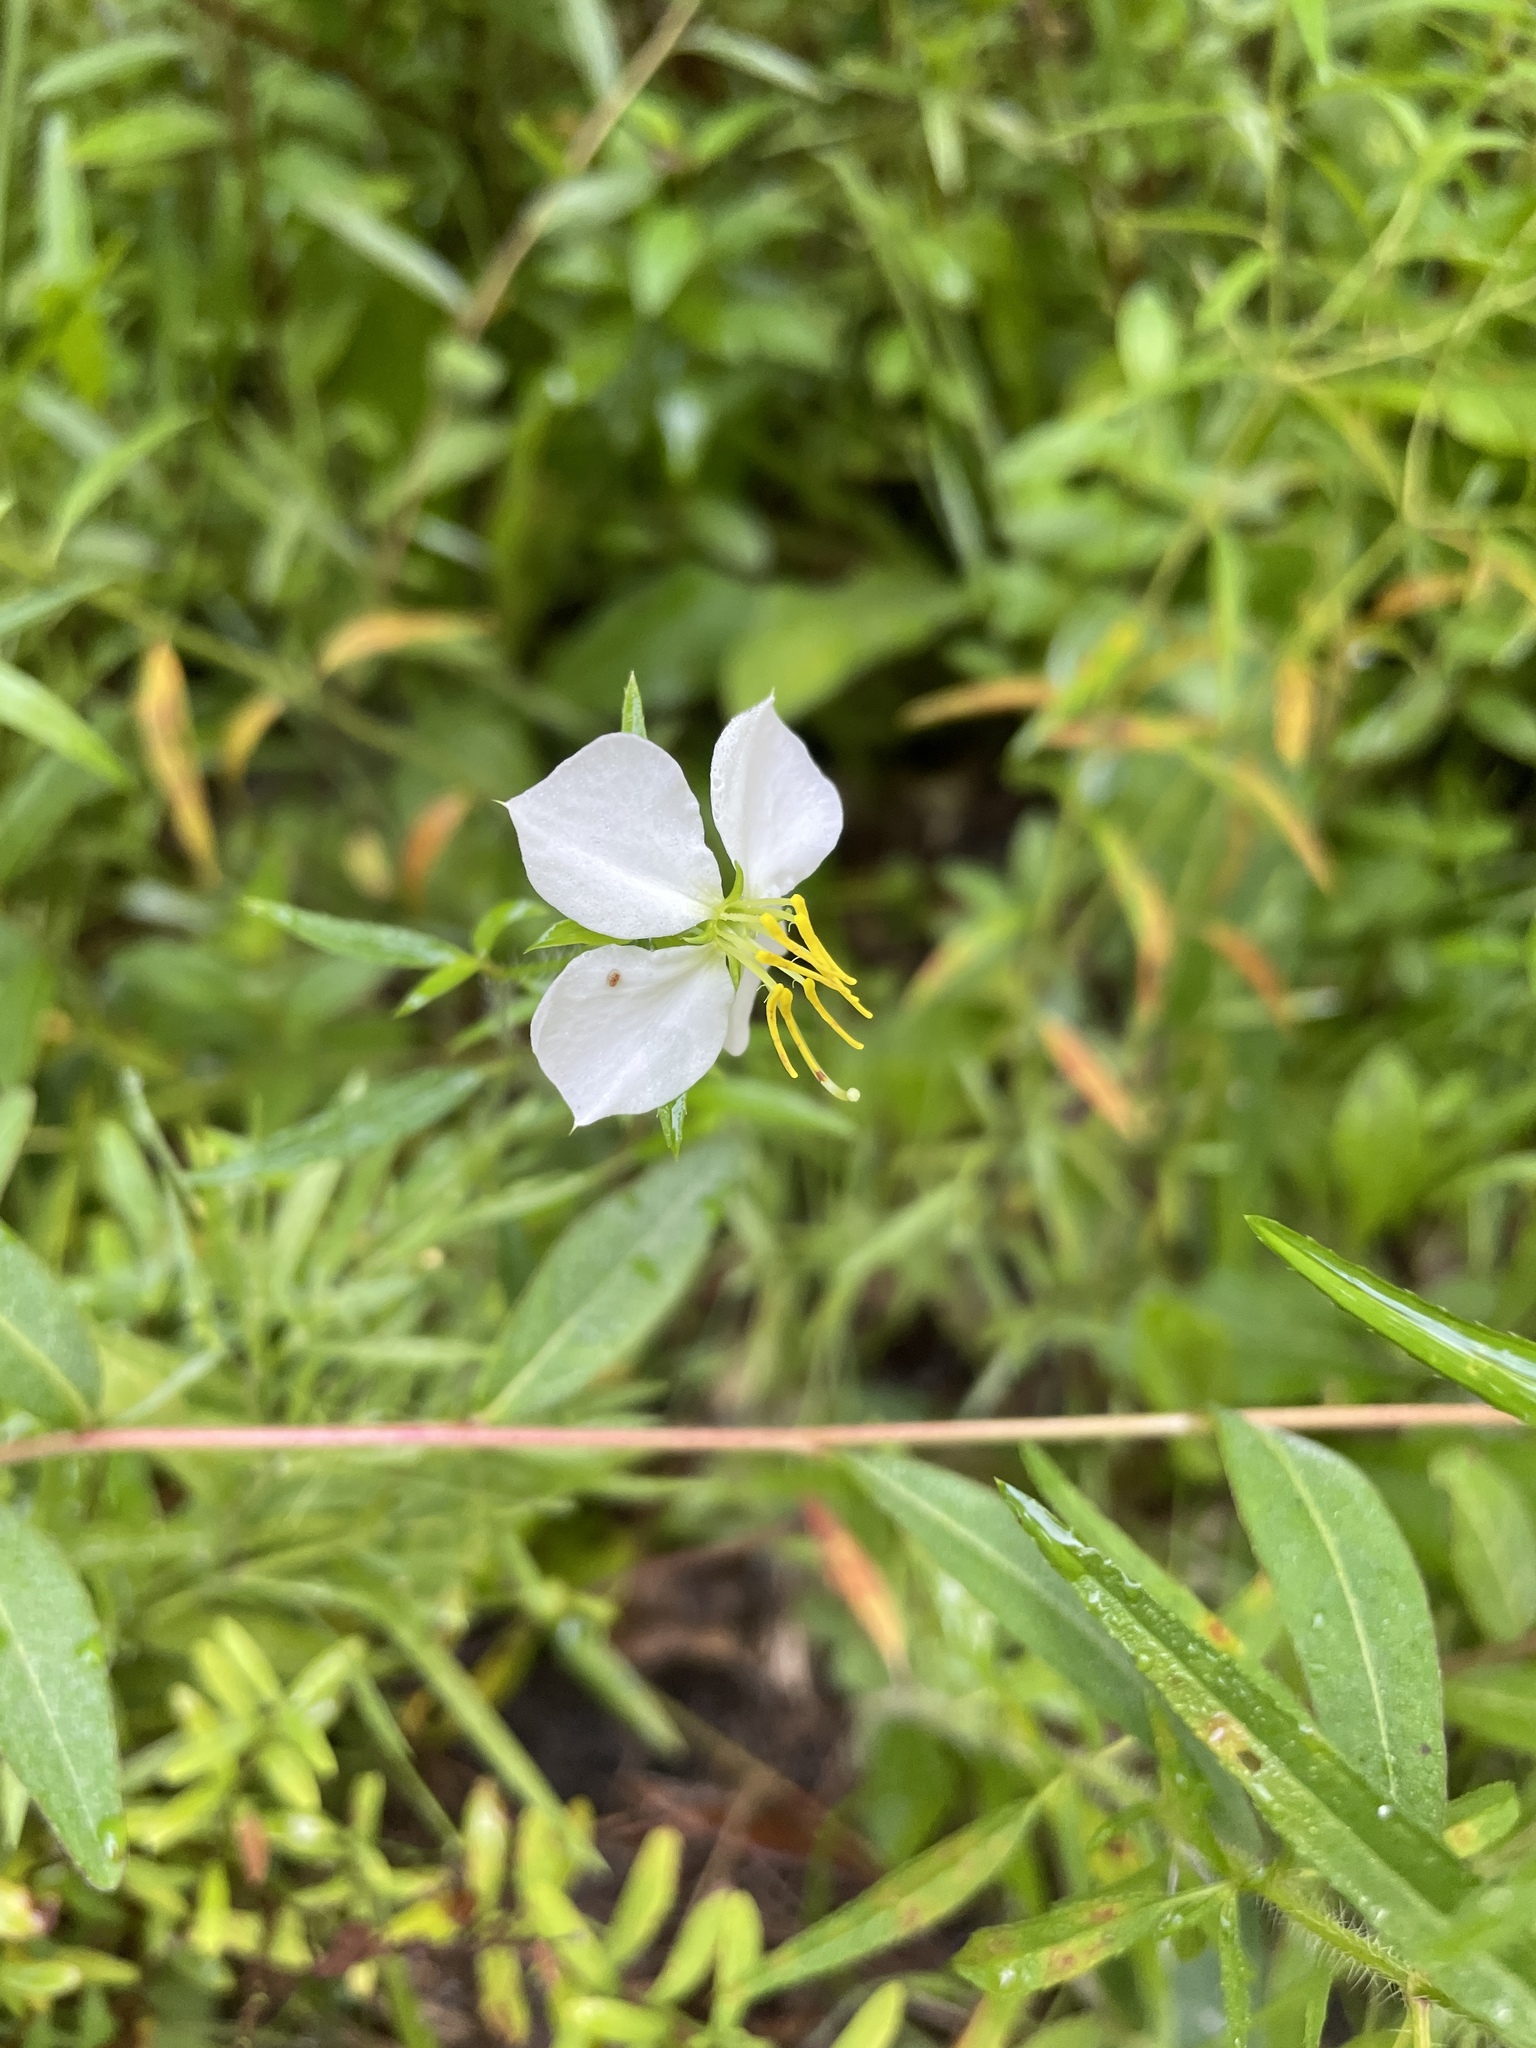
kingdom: Plantae
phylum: Tracheophyta
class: Magnoliopsida
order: Myrtales
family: Melastomataceae
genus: Rhexia
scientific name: Rhexia mariana
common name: Dull meadow-pitcher
